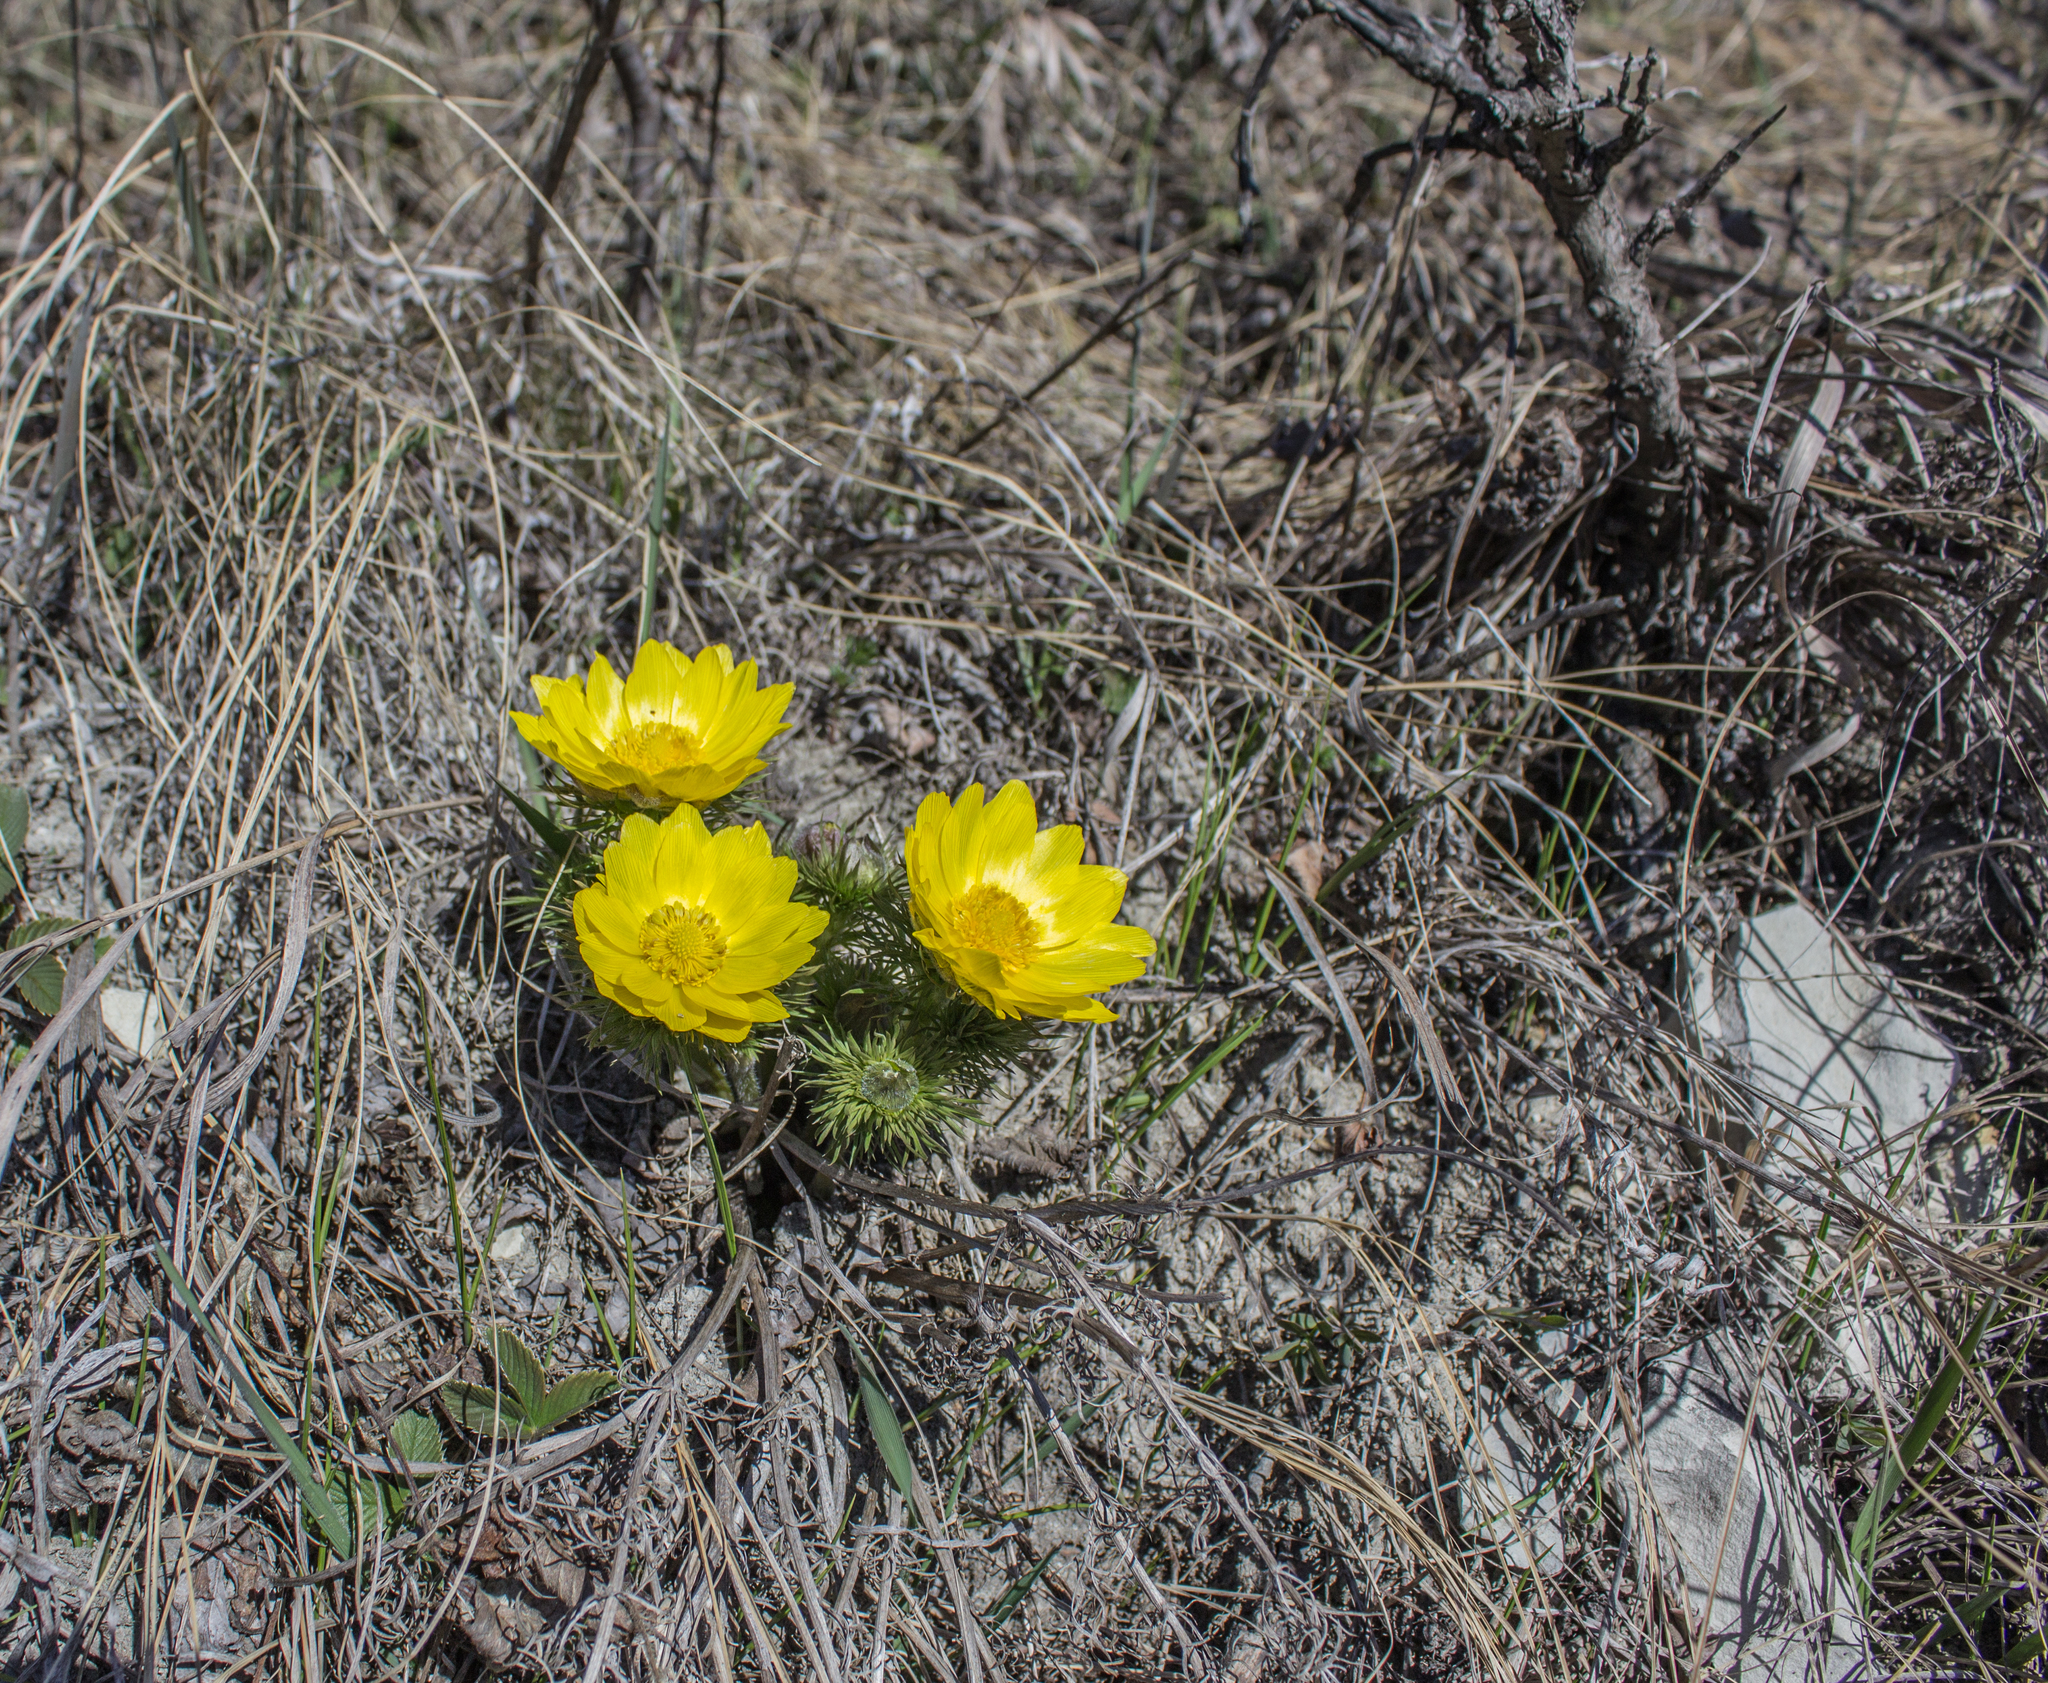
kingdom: Plantae
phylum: Tracheophyta
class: Magnoliopsida
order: Ranunculales
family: Ranunculaceae
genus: Adonis
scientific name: Adonis vernalis
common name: Yellow pheasants-eye
